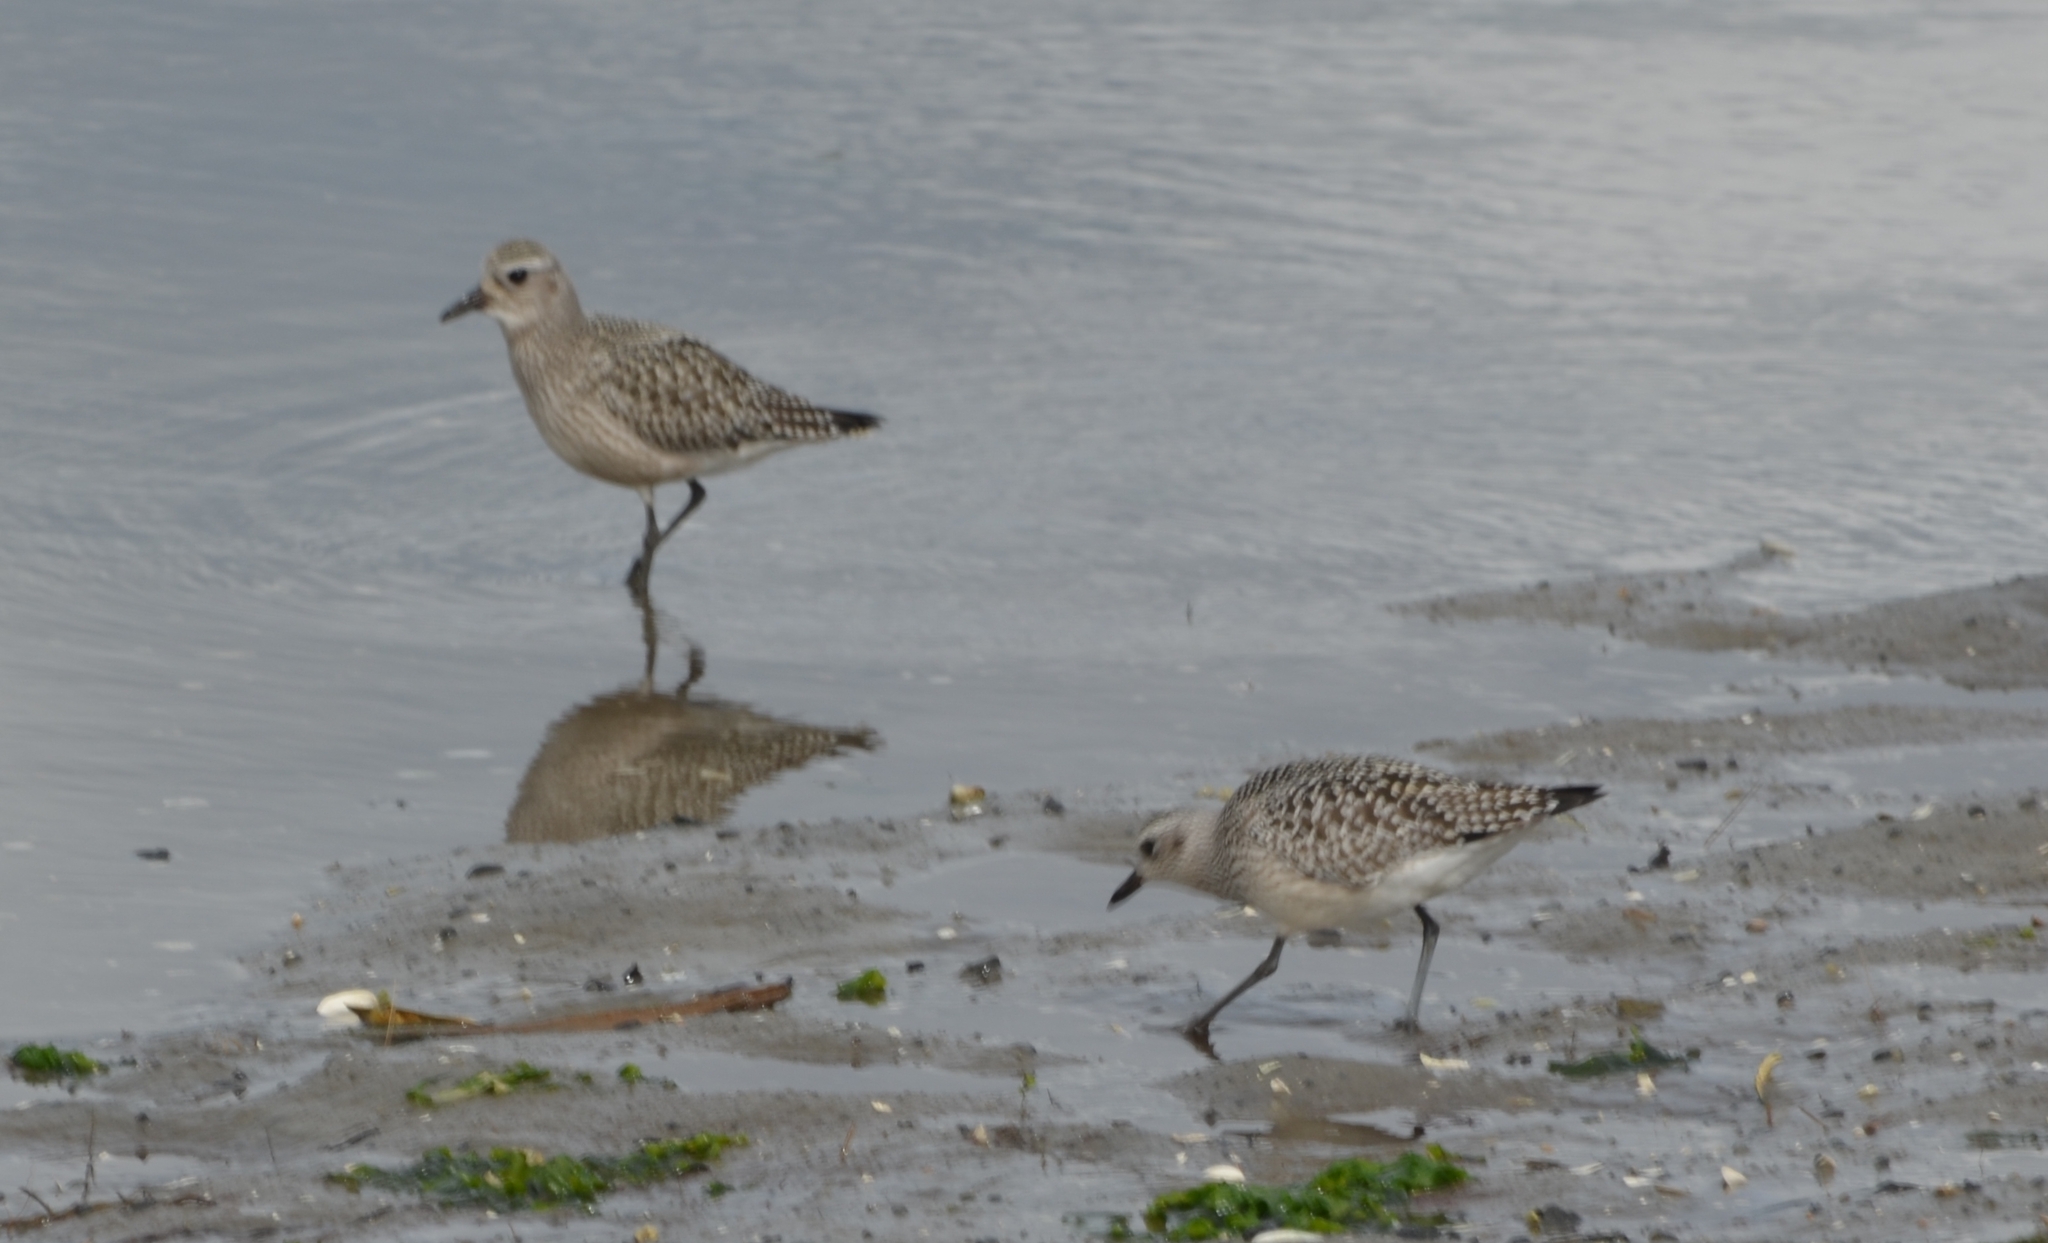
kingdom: Animalia
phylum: Chordata
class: Aves
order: Charadriiformes
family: Charadriidae
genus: Pluvialis
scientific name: Pluvialis squatarola
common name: Grey plover
